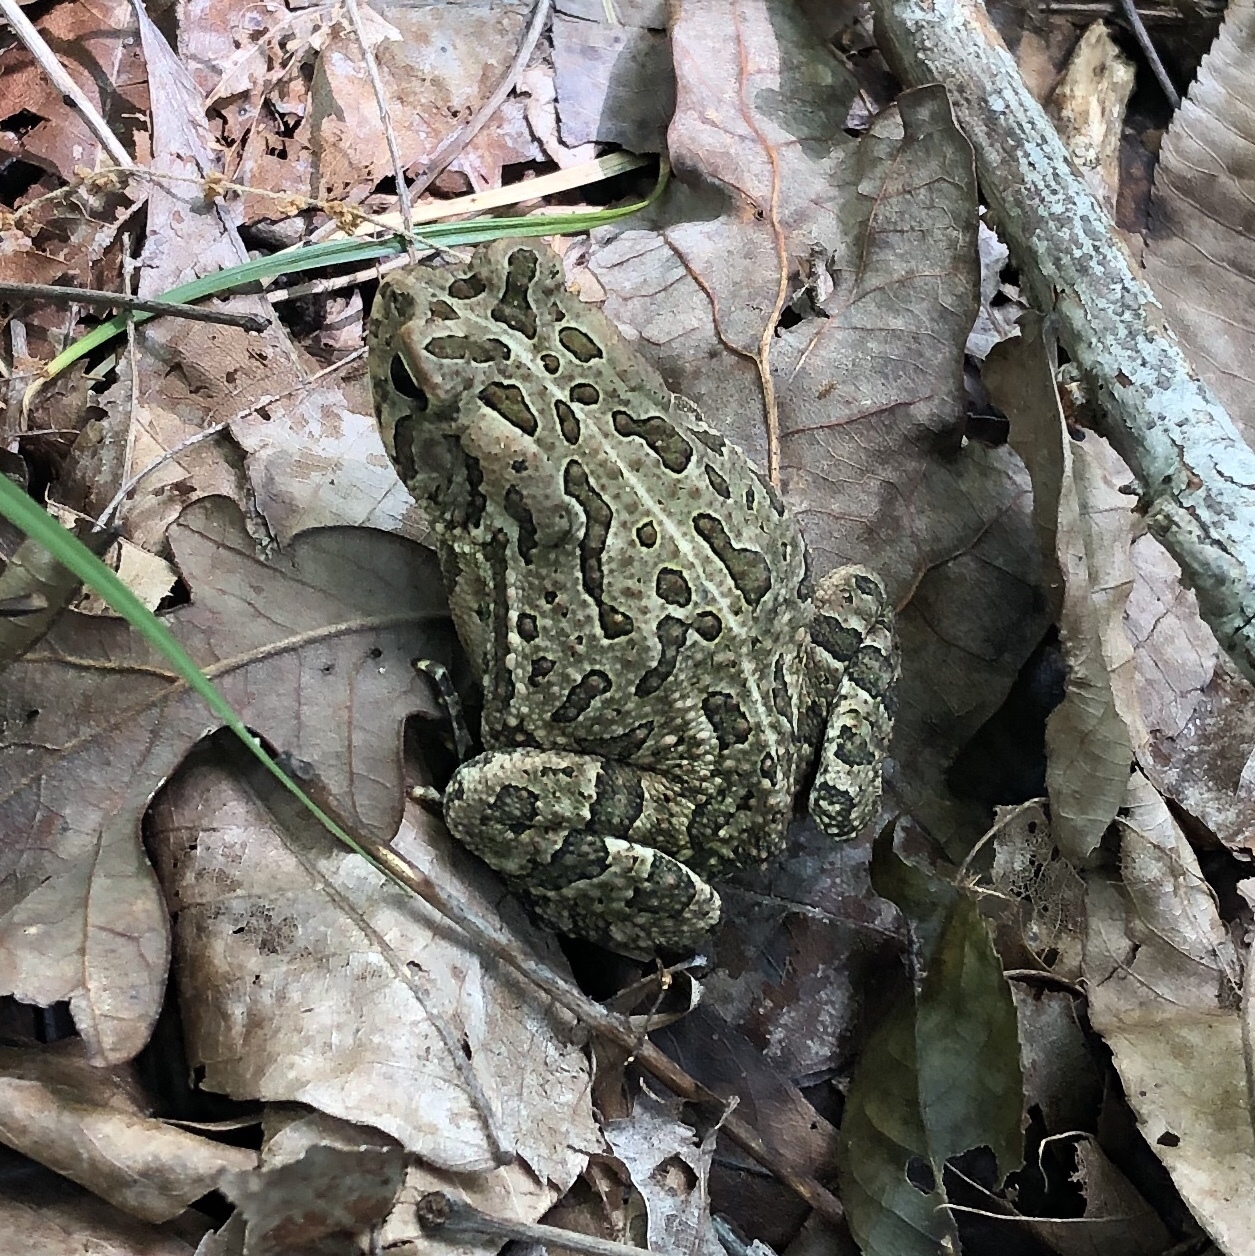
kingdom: Animalia
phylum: Chordata
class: Amphibia
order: Anura
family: Bufonidae
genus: Anaxyrus
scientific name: Anaxyrus fowleri
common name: Fowler's toad
